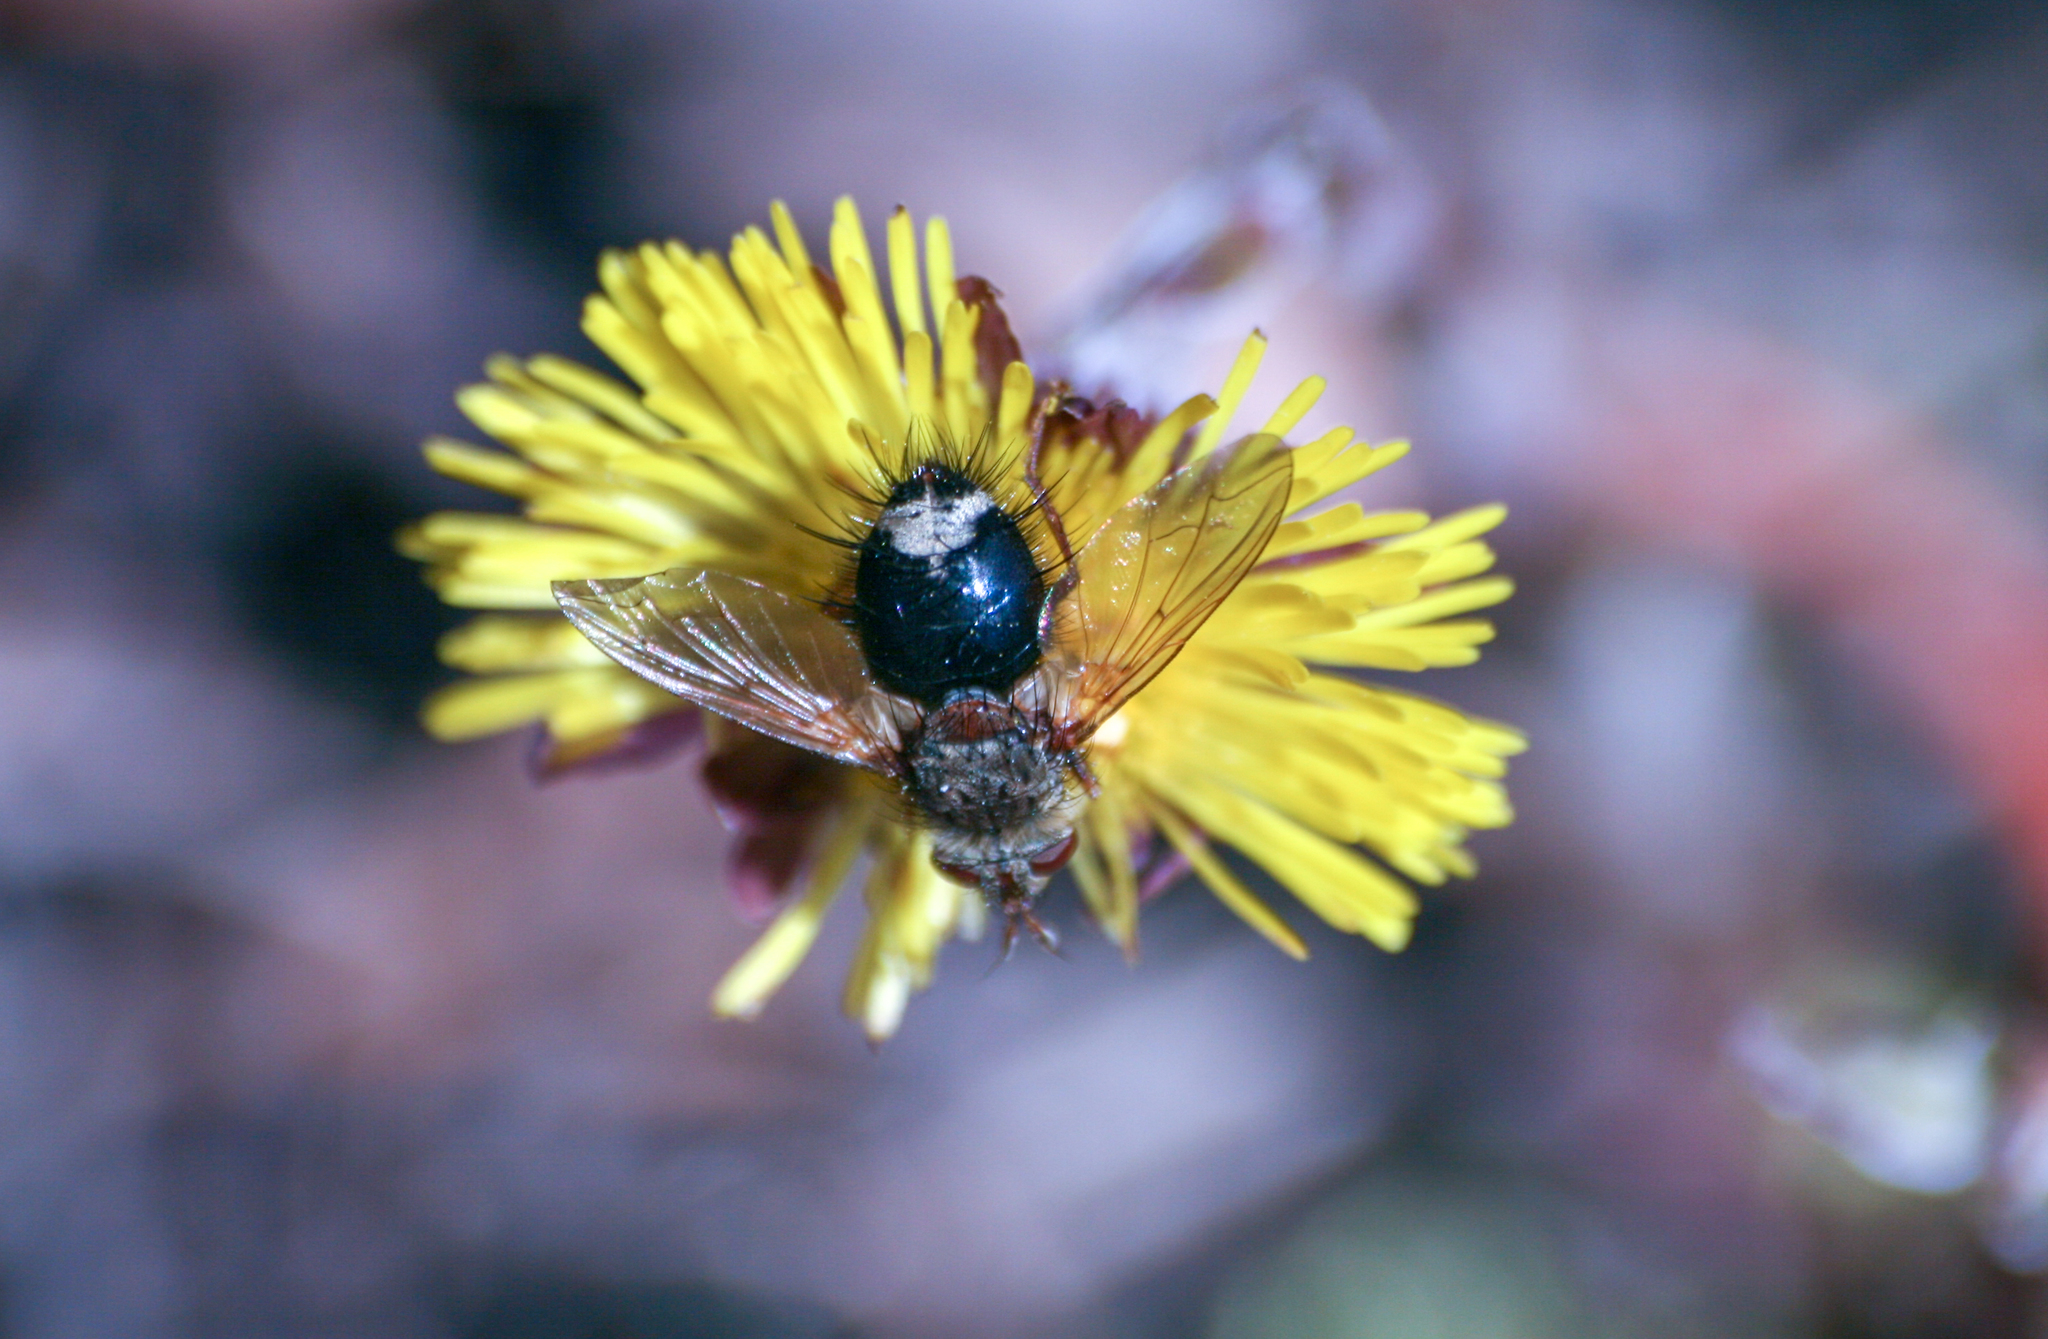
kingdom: Animalia
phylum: Arthropoda
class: Insecta
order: Diptera
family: Tachinidae
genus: Epalpus
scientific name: Epalpus signifer
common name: Early tachinid fly
